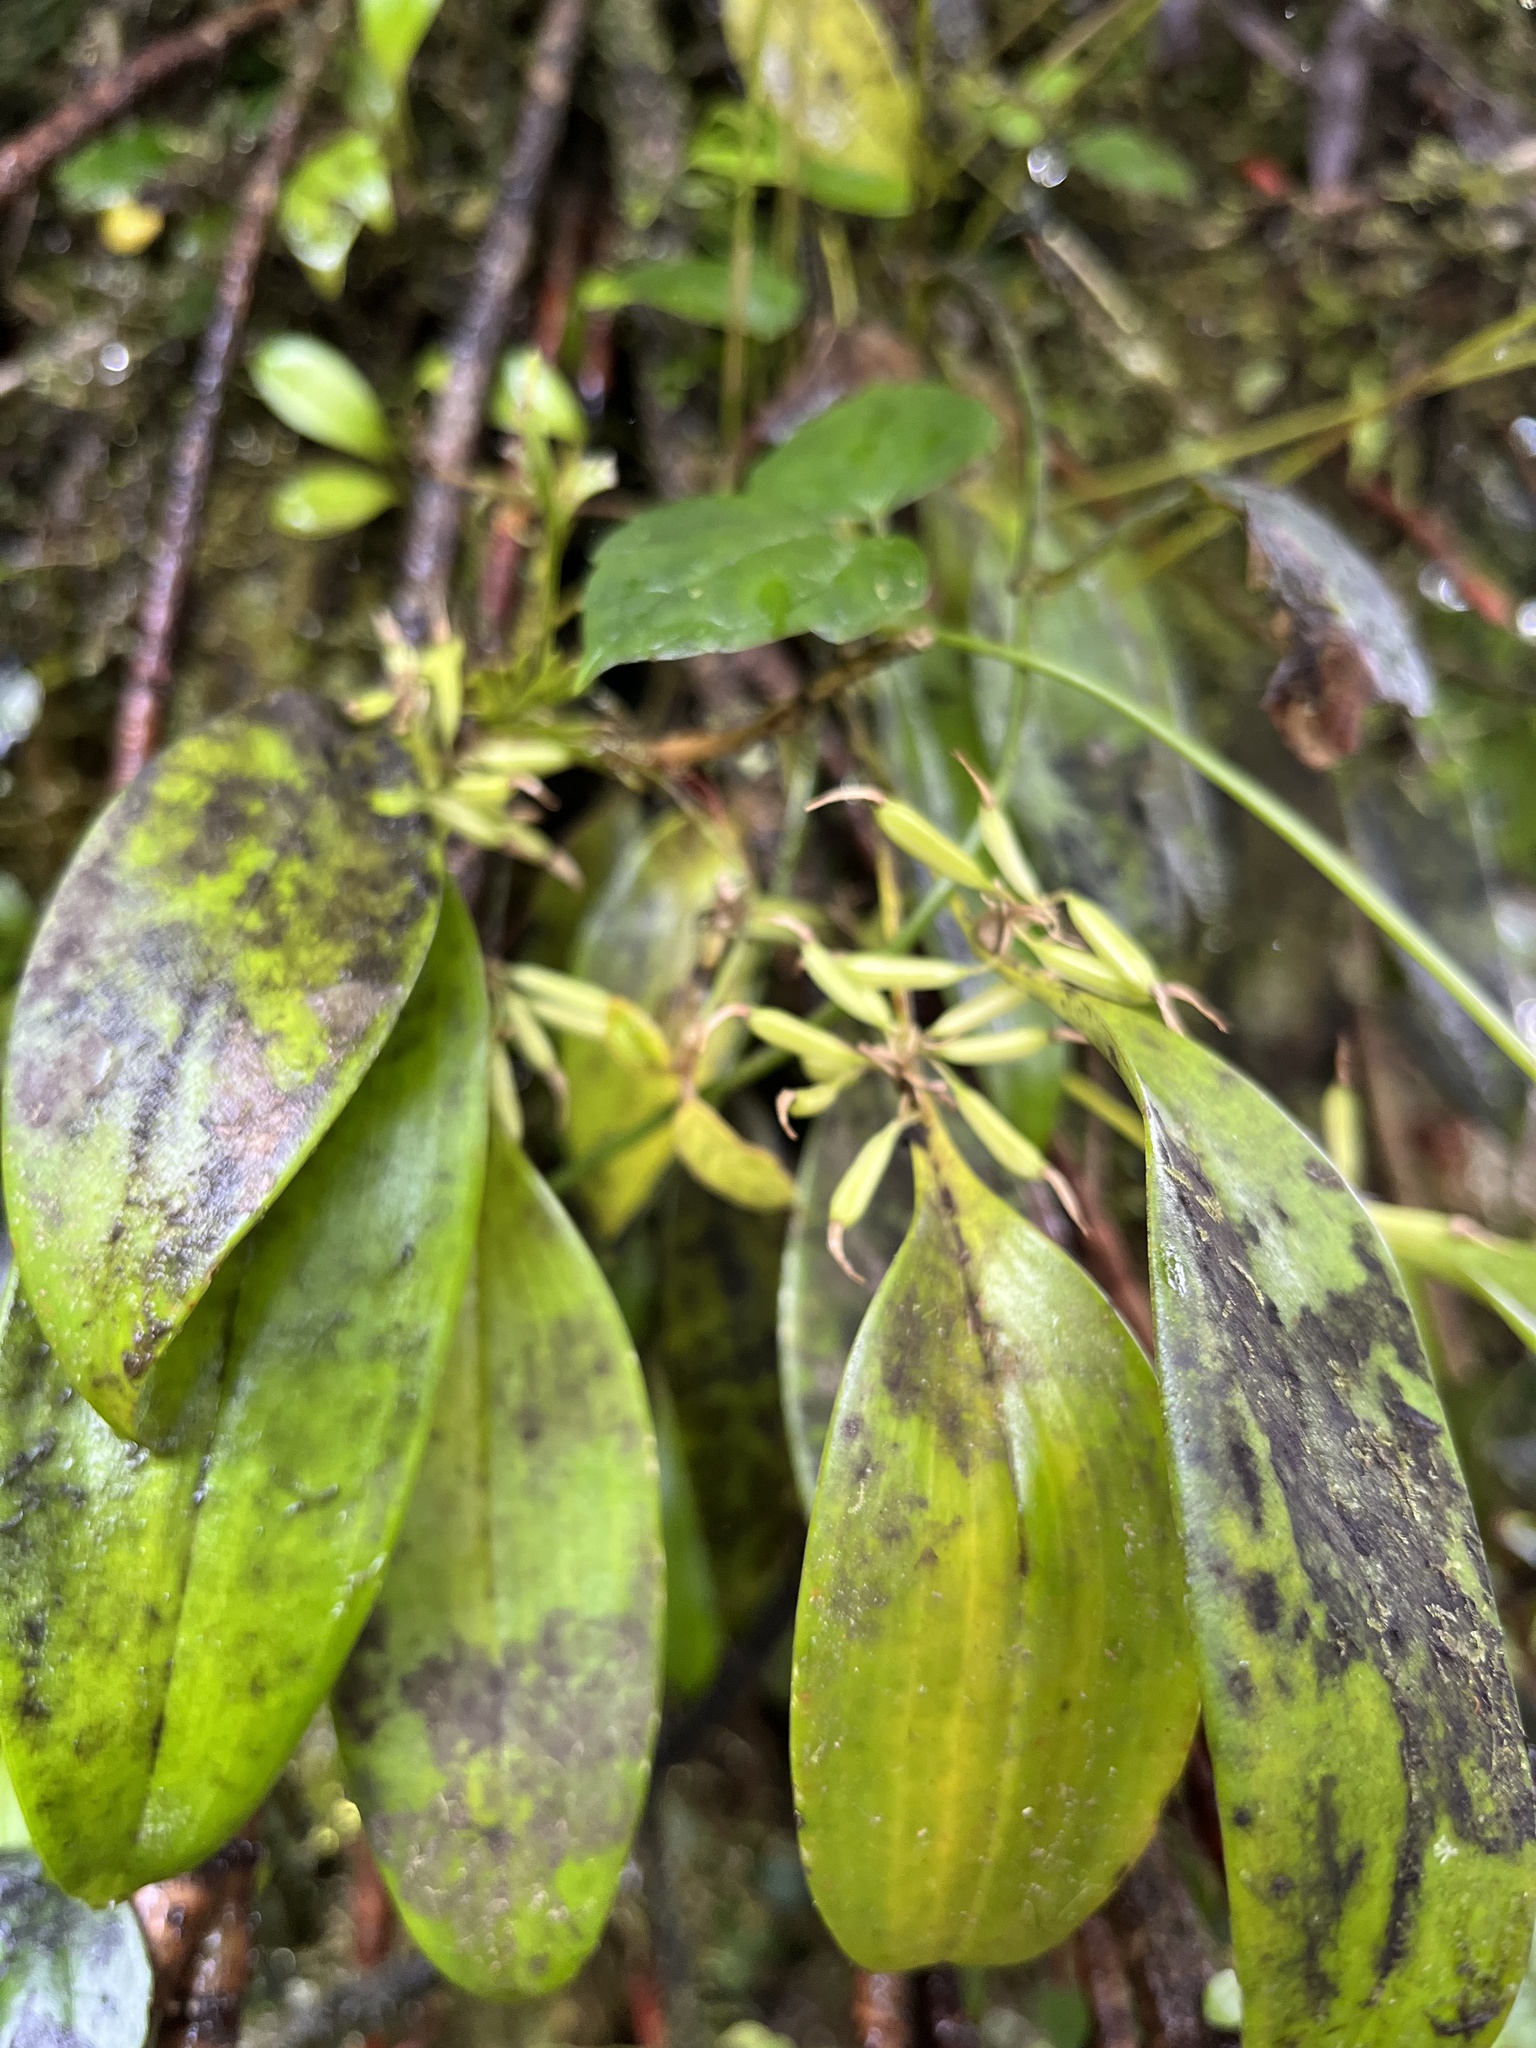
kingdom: Plantae
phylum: Tracheophyta
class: Liliopsida
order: Asparagales
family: Orchidaceae
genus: Pleurothallis
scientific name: Pleurothallis ruscifolia
